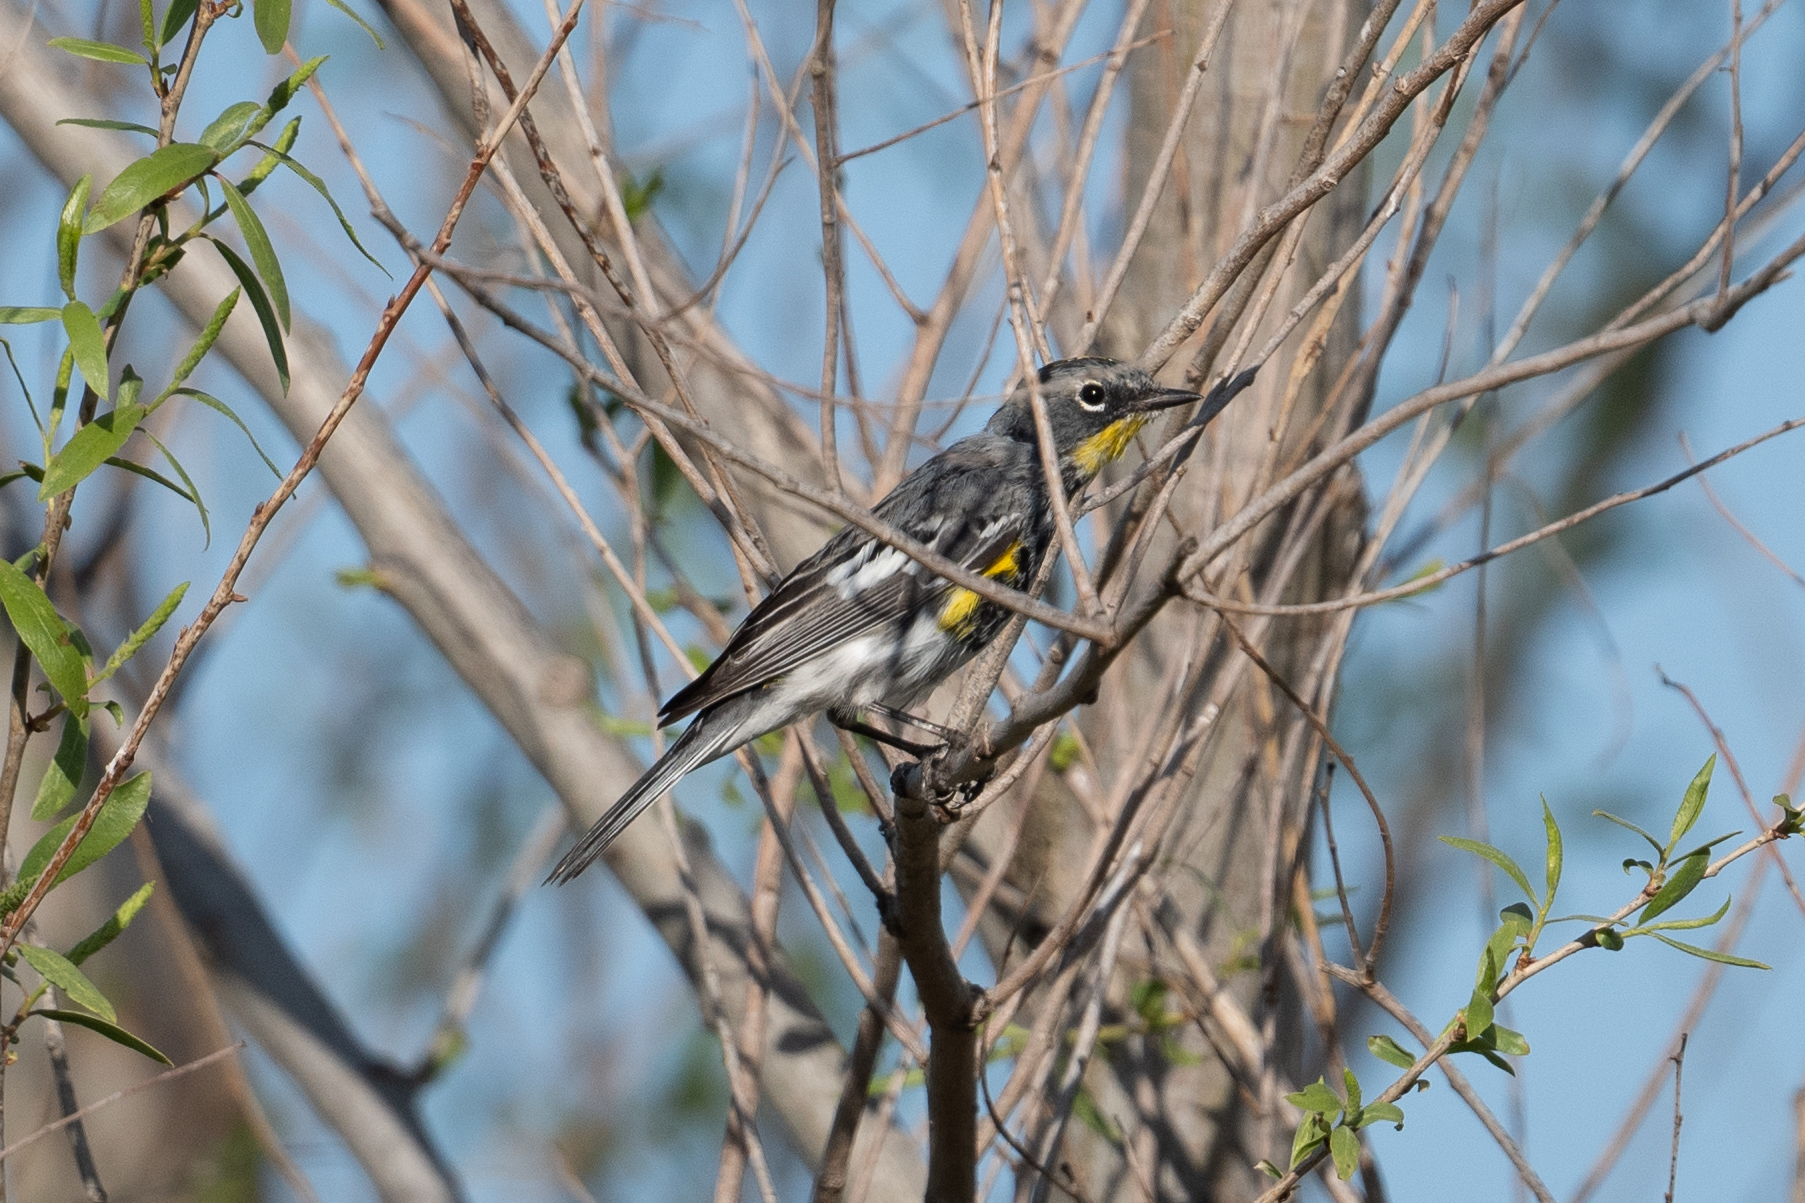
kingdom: Animalia
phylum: Chordata
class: Aves
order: Passeriformes
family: Parulidae
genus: Setophaga
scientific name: Setophaga coronata
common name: Myrtle warbler
